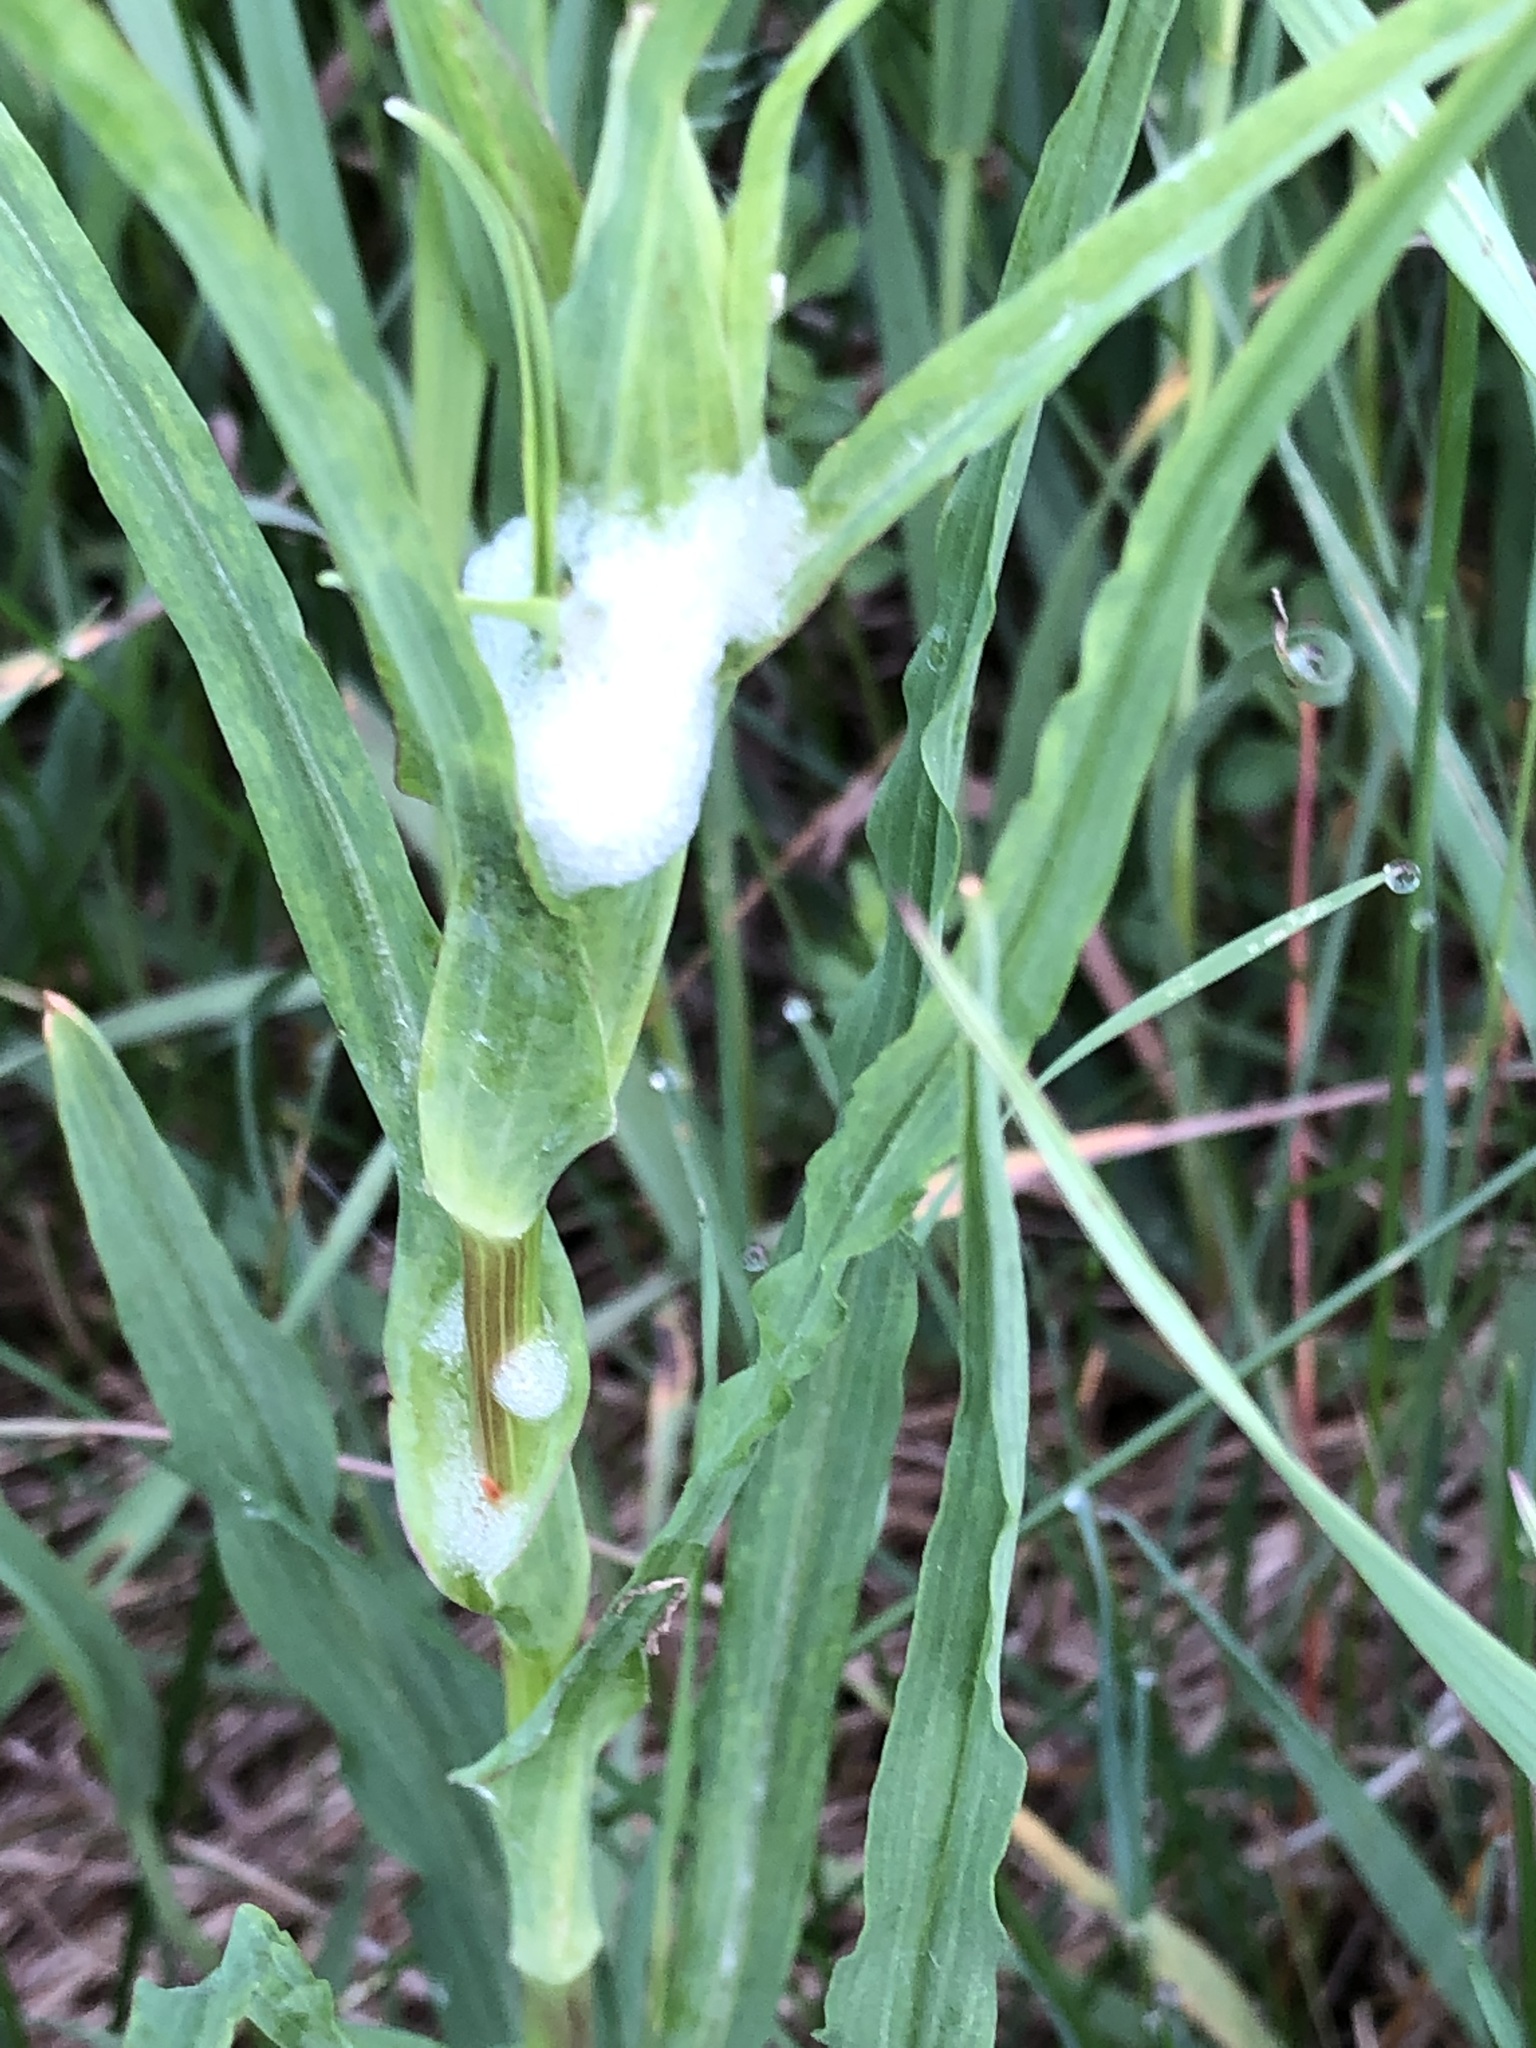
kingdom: Animalia
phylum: Arthropoda
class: Insecta
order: Hemiptera
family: Aphrophoridae
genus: Philaenus
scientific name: Philaenus spumarius
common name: Meadow spittlebug
